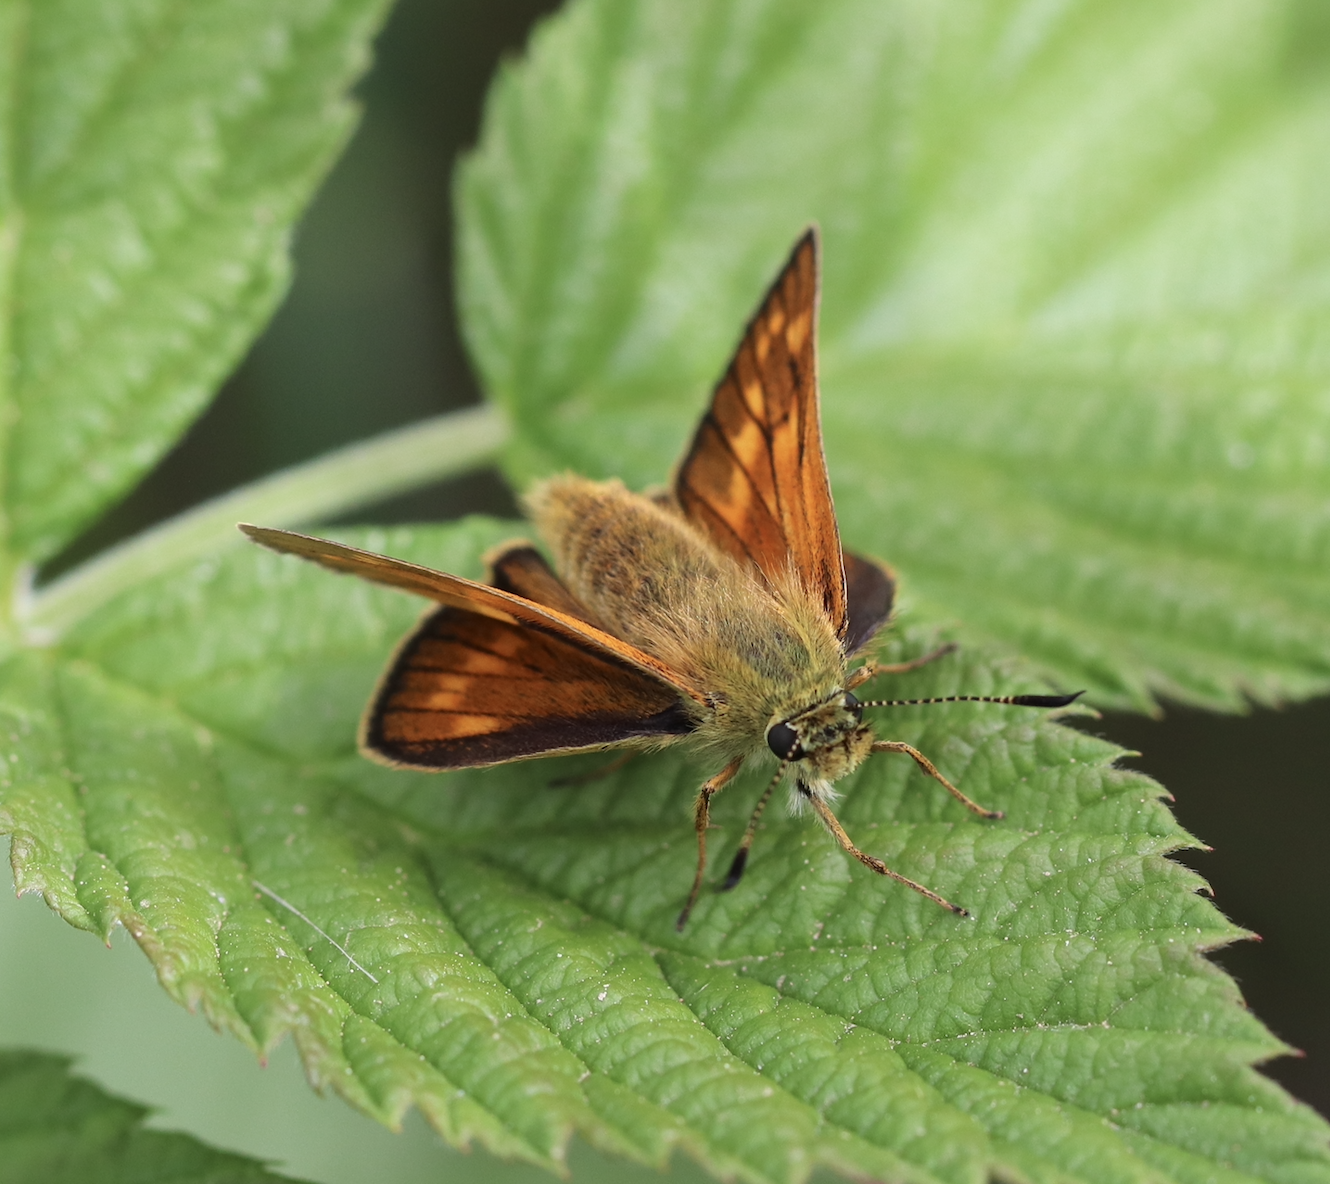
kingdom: Animalia
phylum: Arthropoda
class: Insecta
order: Lepidoptera
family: Hesperiidae
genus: Ochlodes
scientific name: Ochlodes venata
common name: Large skipper
